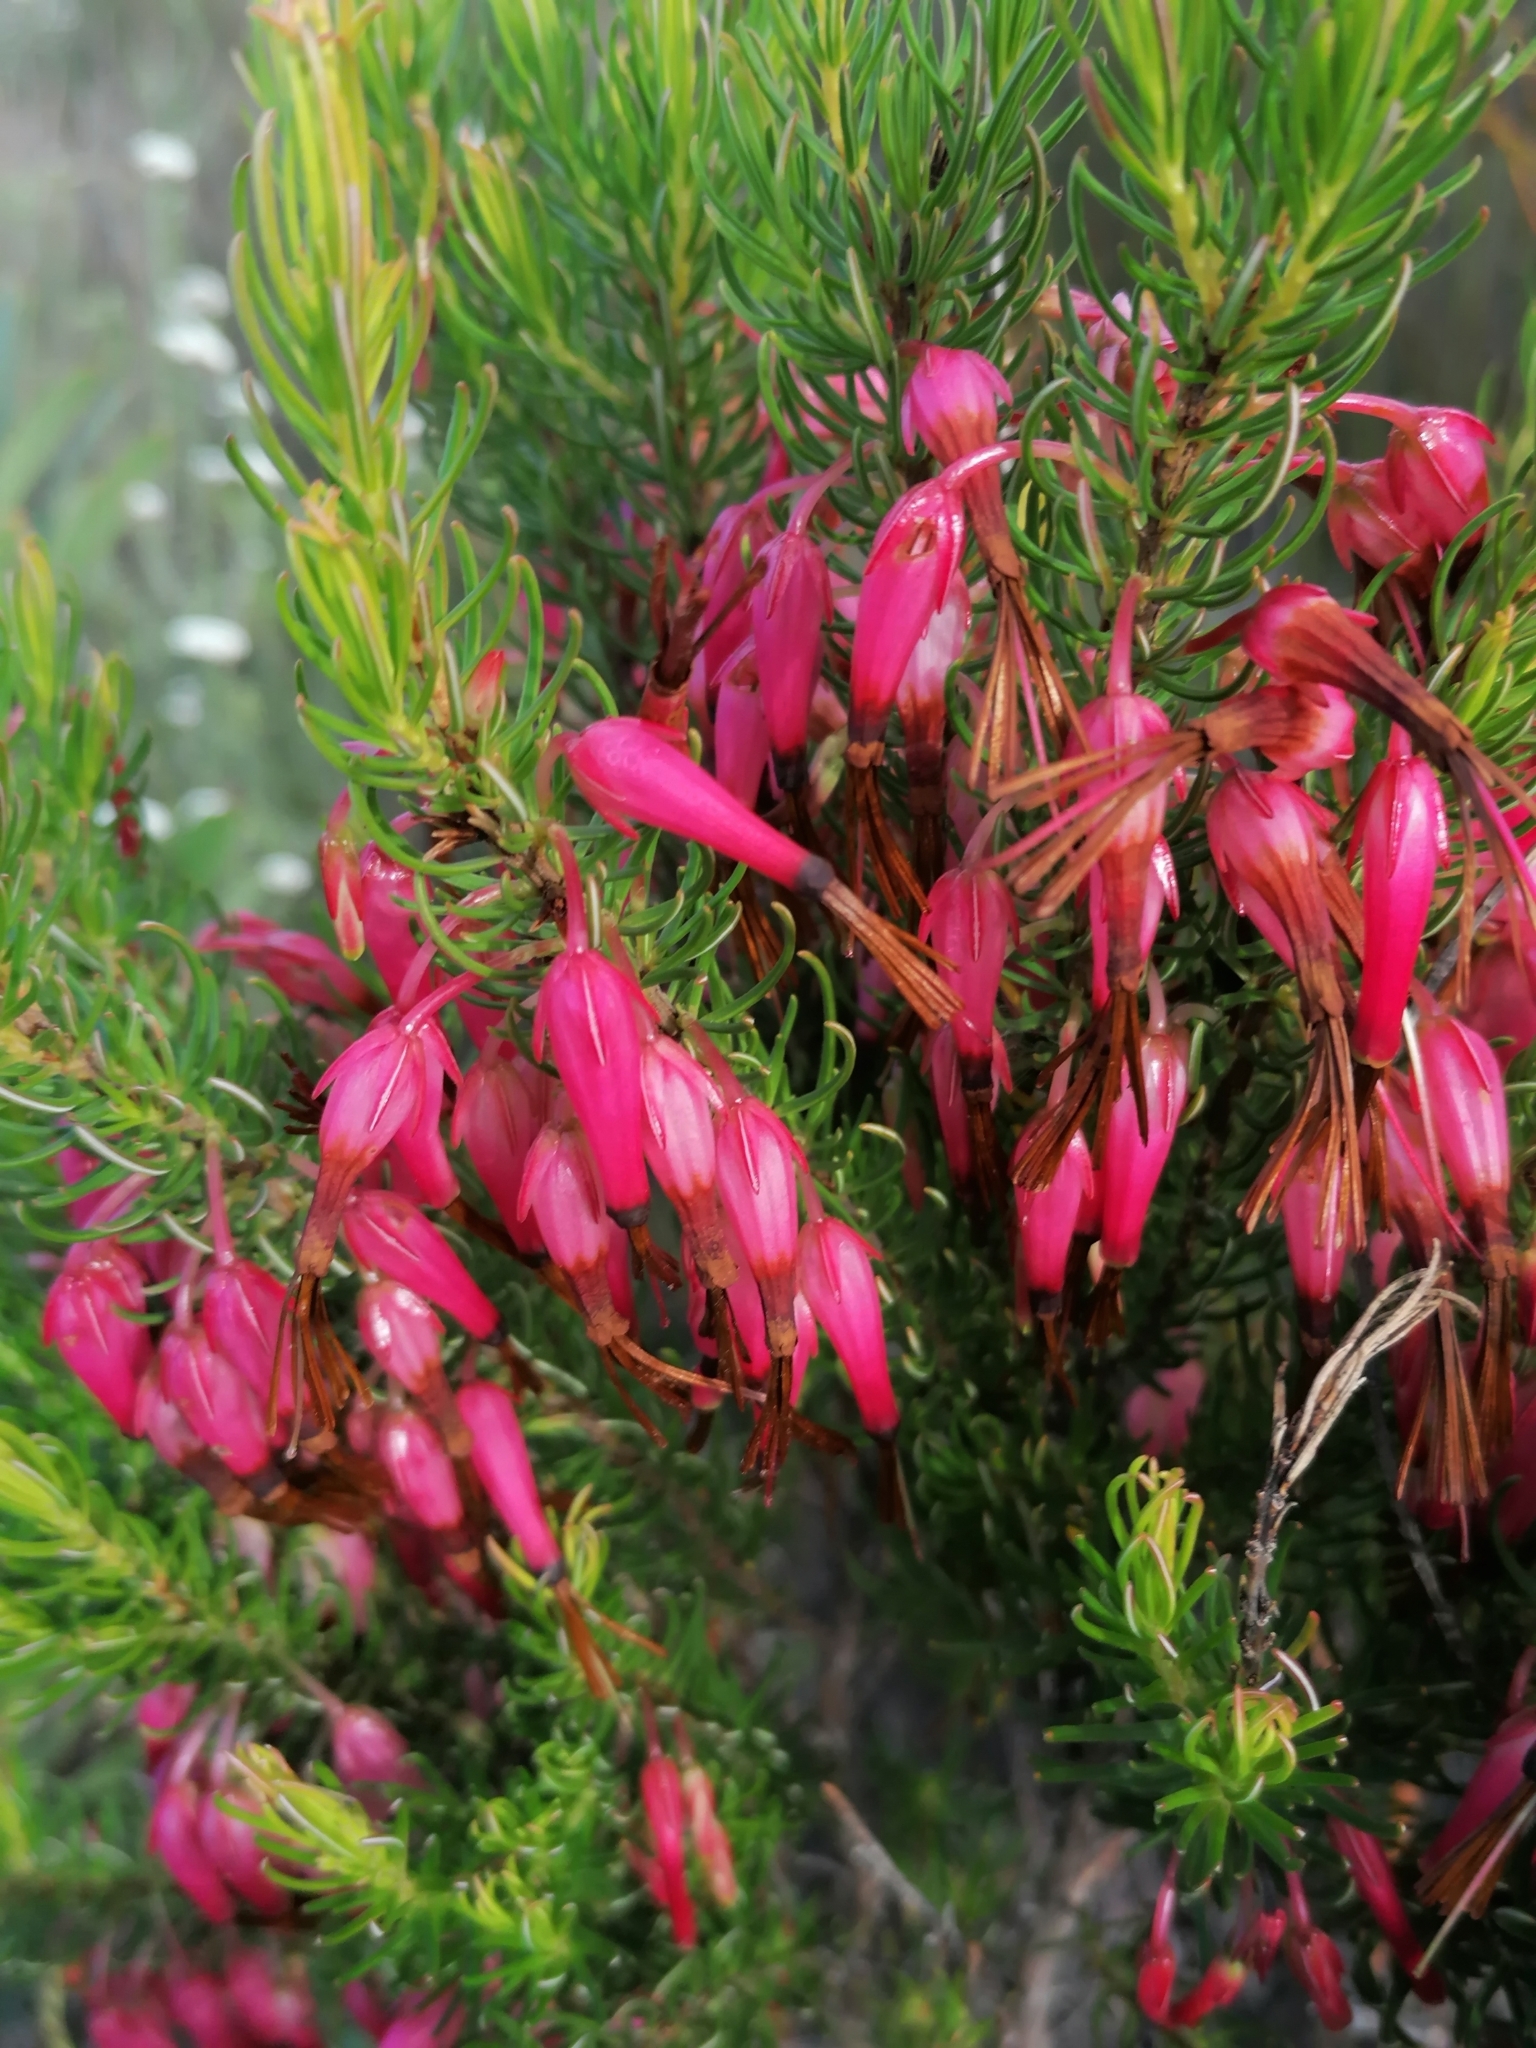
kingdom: Plantae
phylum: Tracheophyta
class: Magnoliopsida
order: Ericales
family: Ericaceae
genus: Erica
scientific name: Erica plukenetii
